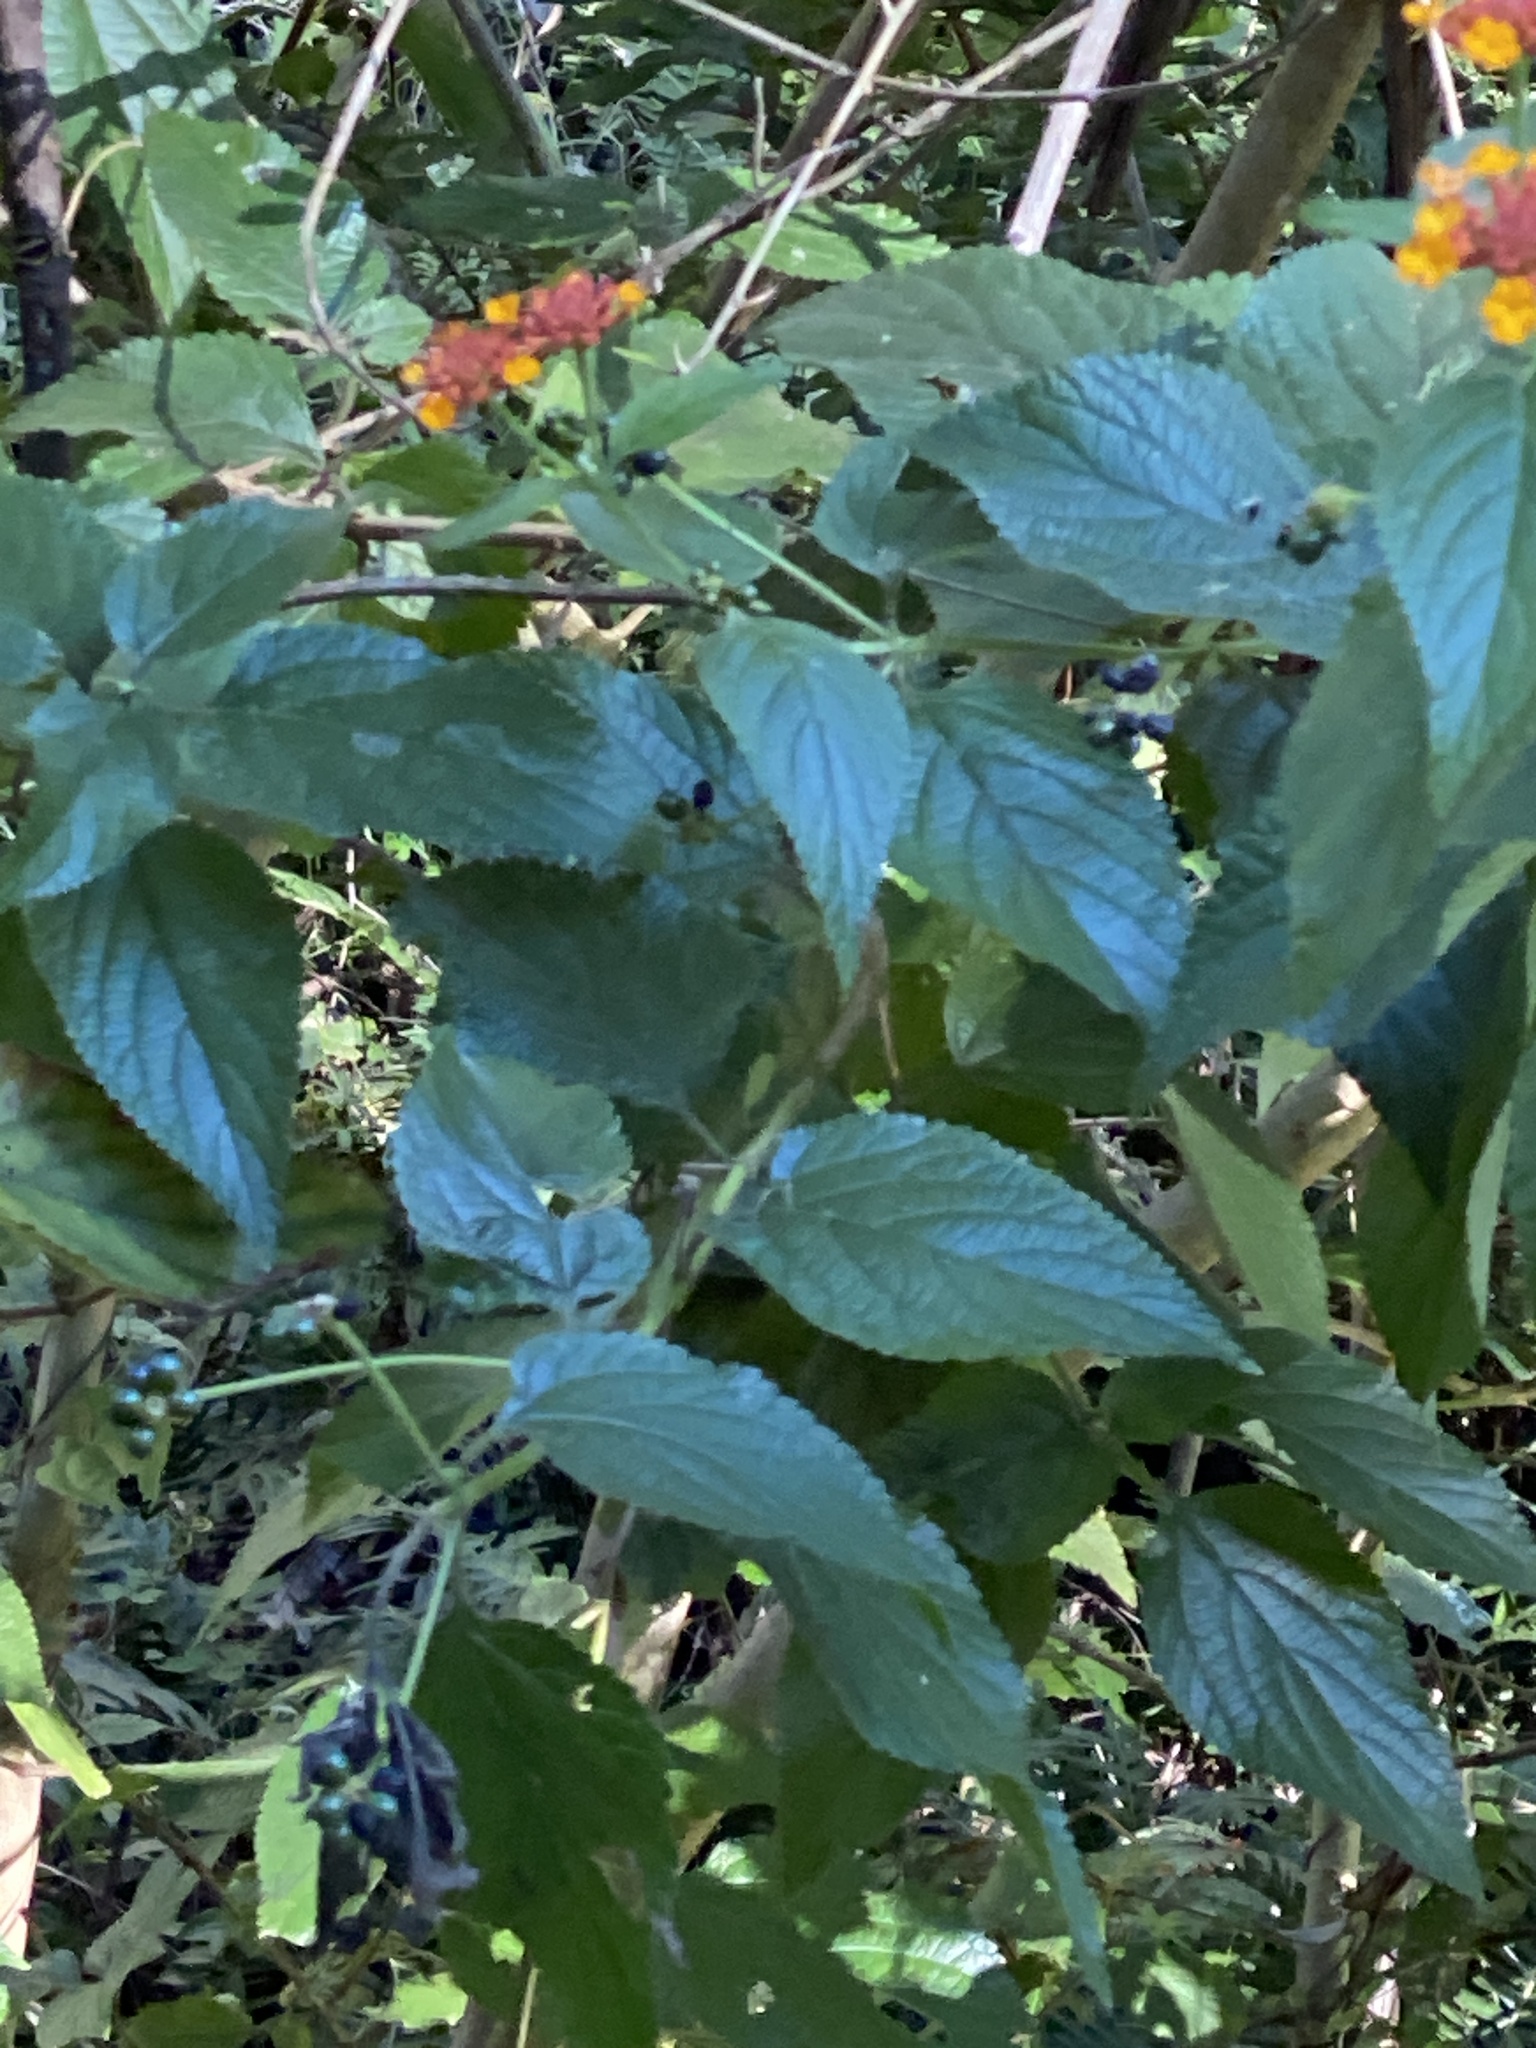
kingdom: Plantae
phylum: Tracheophyta
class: Magnoliopsida
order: Lamiales
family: Verbenaceae
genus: Lantana
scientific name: Lantana camara
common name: Lantana
